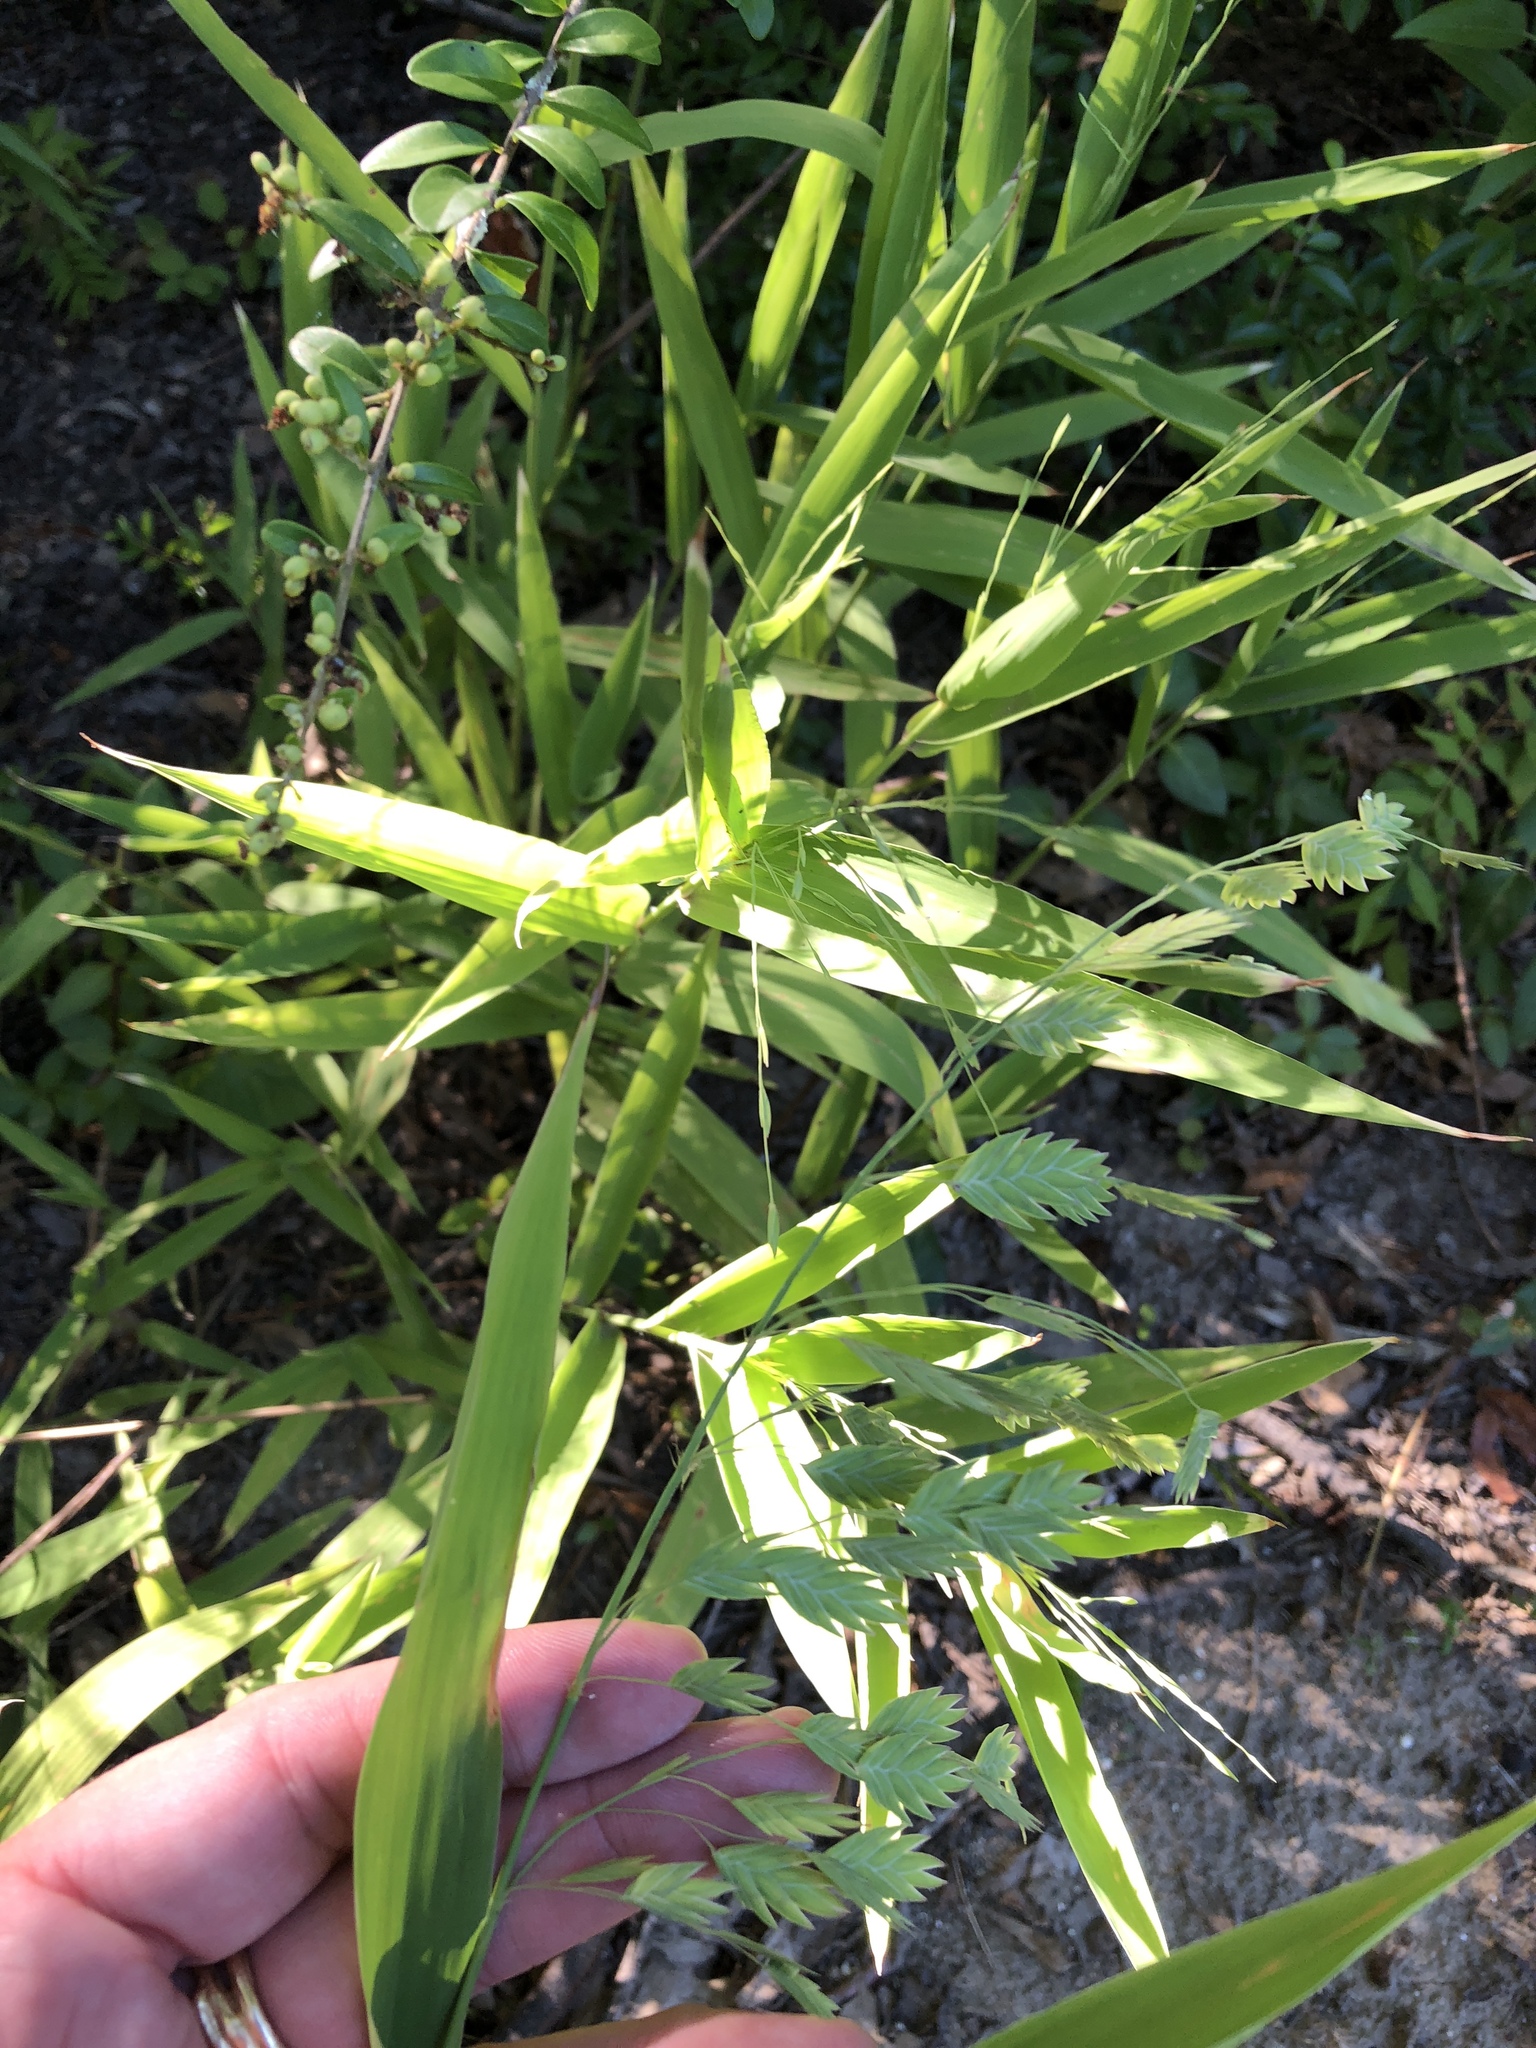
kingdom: Plantae
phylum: Tracheophyta
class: Liliopsida
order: Poales
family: Poaceae
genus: Chasmanthium
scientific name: Chasmanthium latifolium
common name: Broad-leaved chasmanthium
